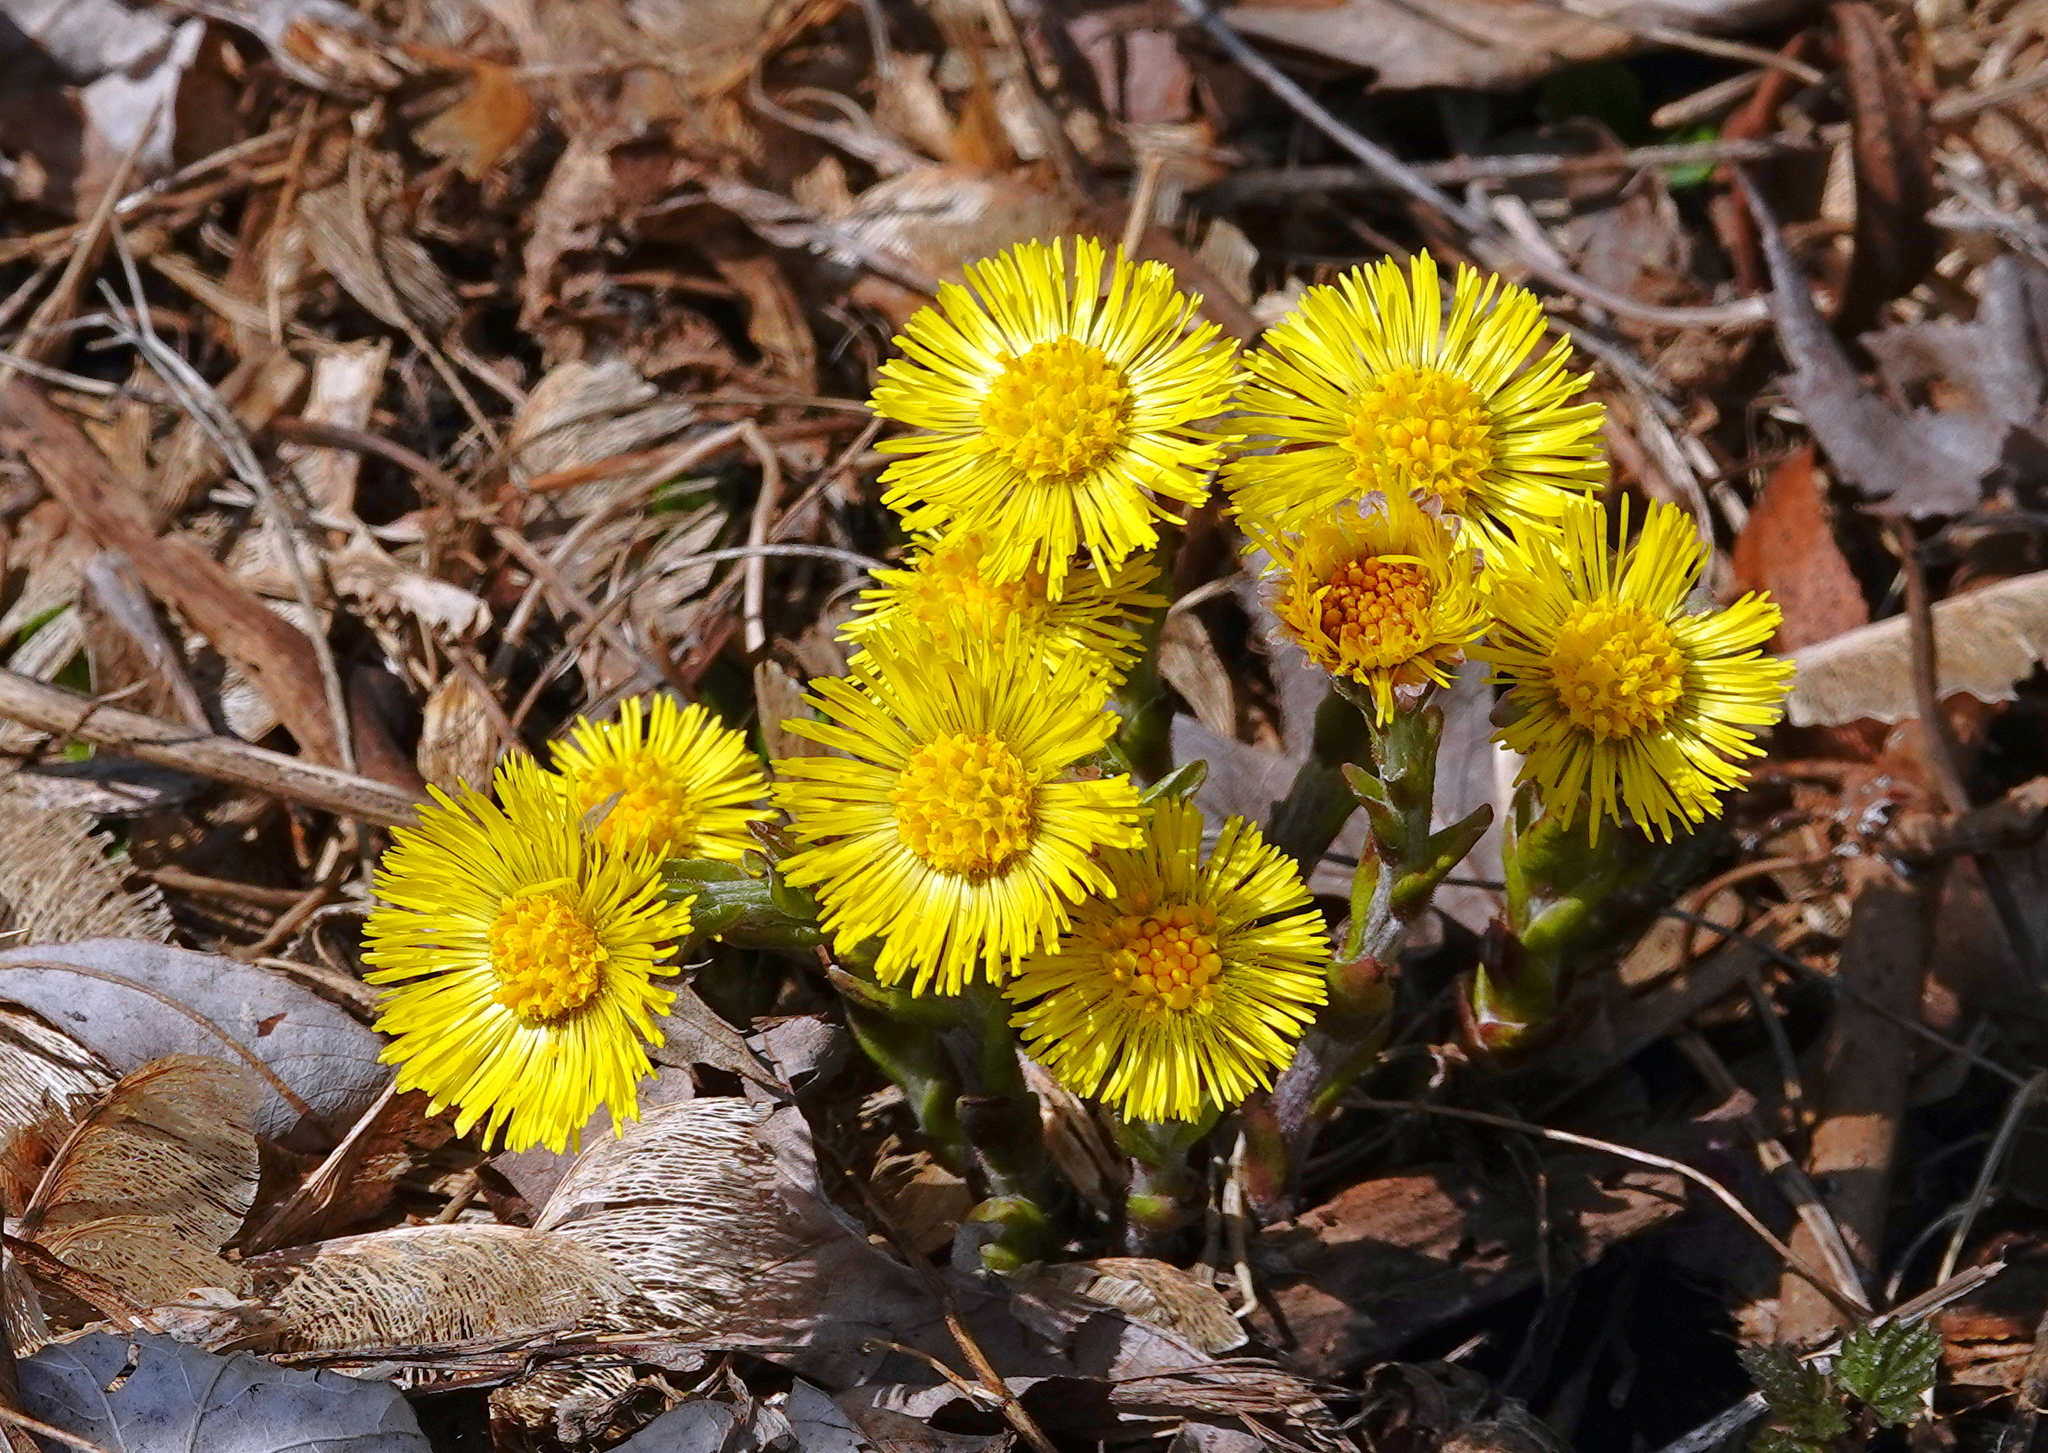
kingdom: Plantae
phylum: Tracheophyta
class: Magnoliopsida
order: Asterales
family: Asteraceae
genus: Tussilago
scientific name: Tussilago farfara
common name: Coltsfoot
